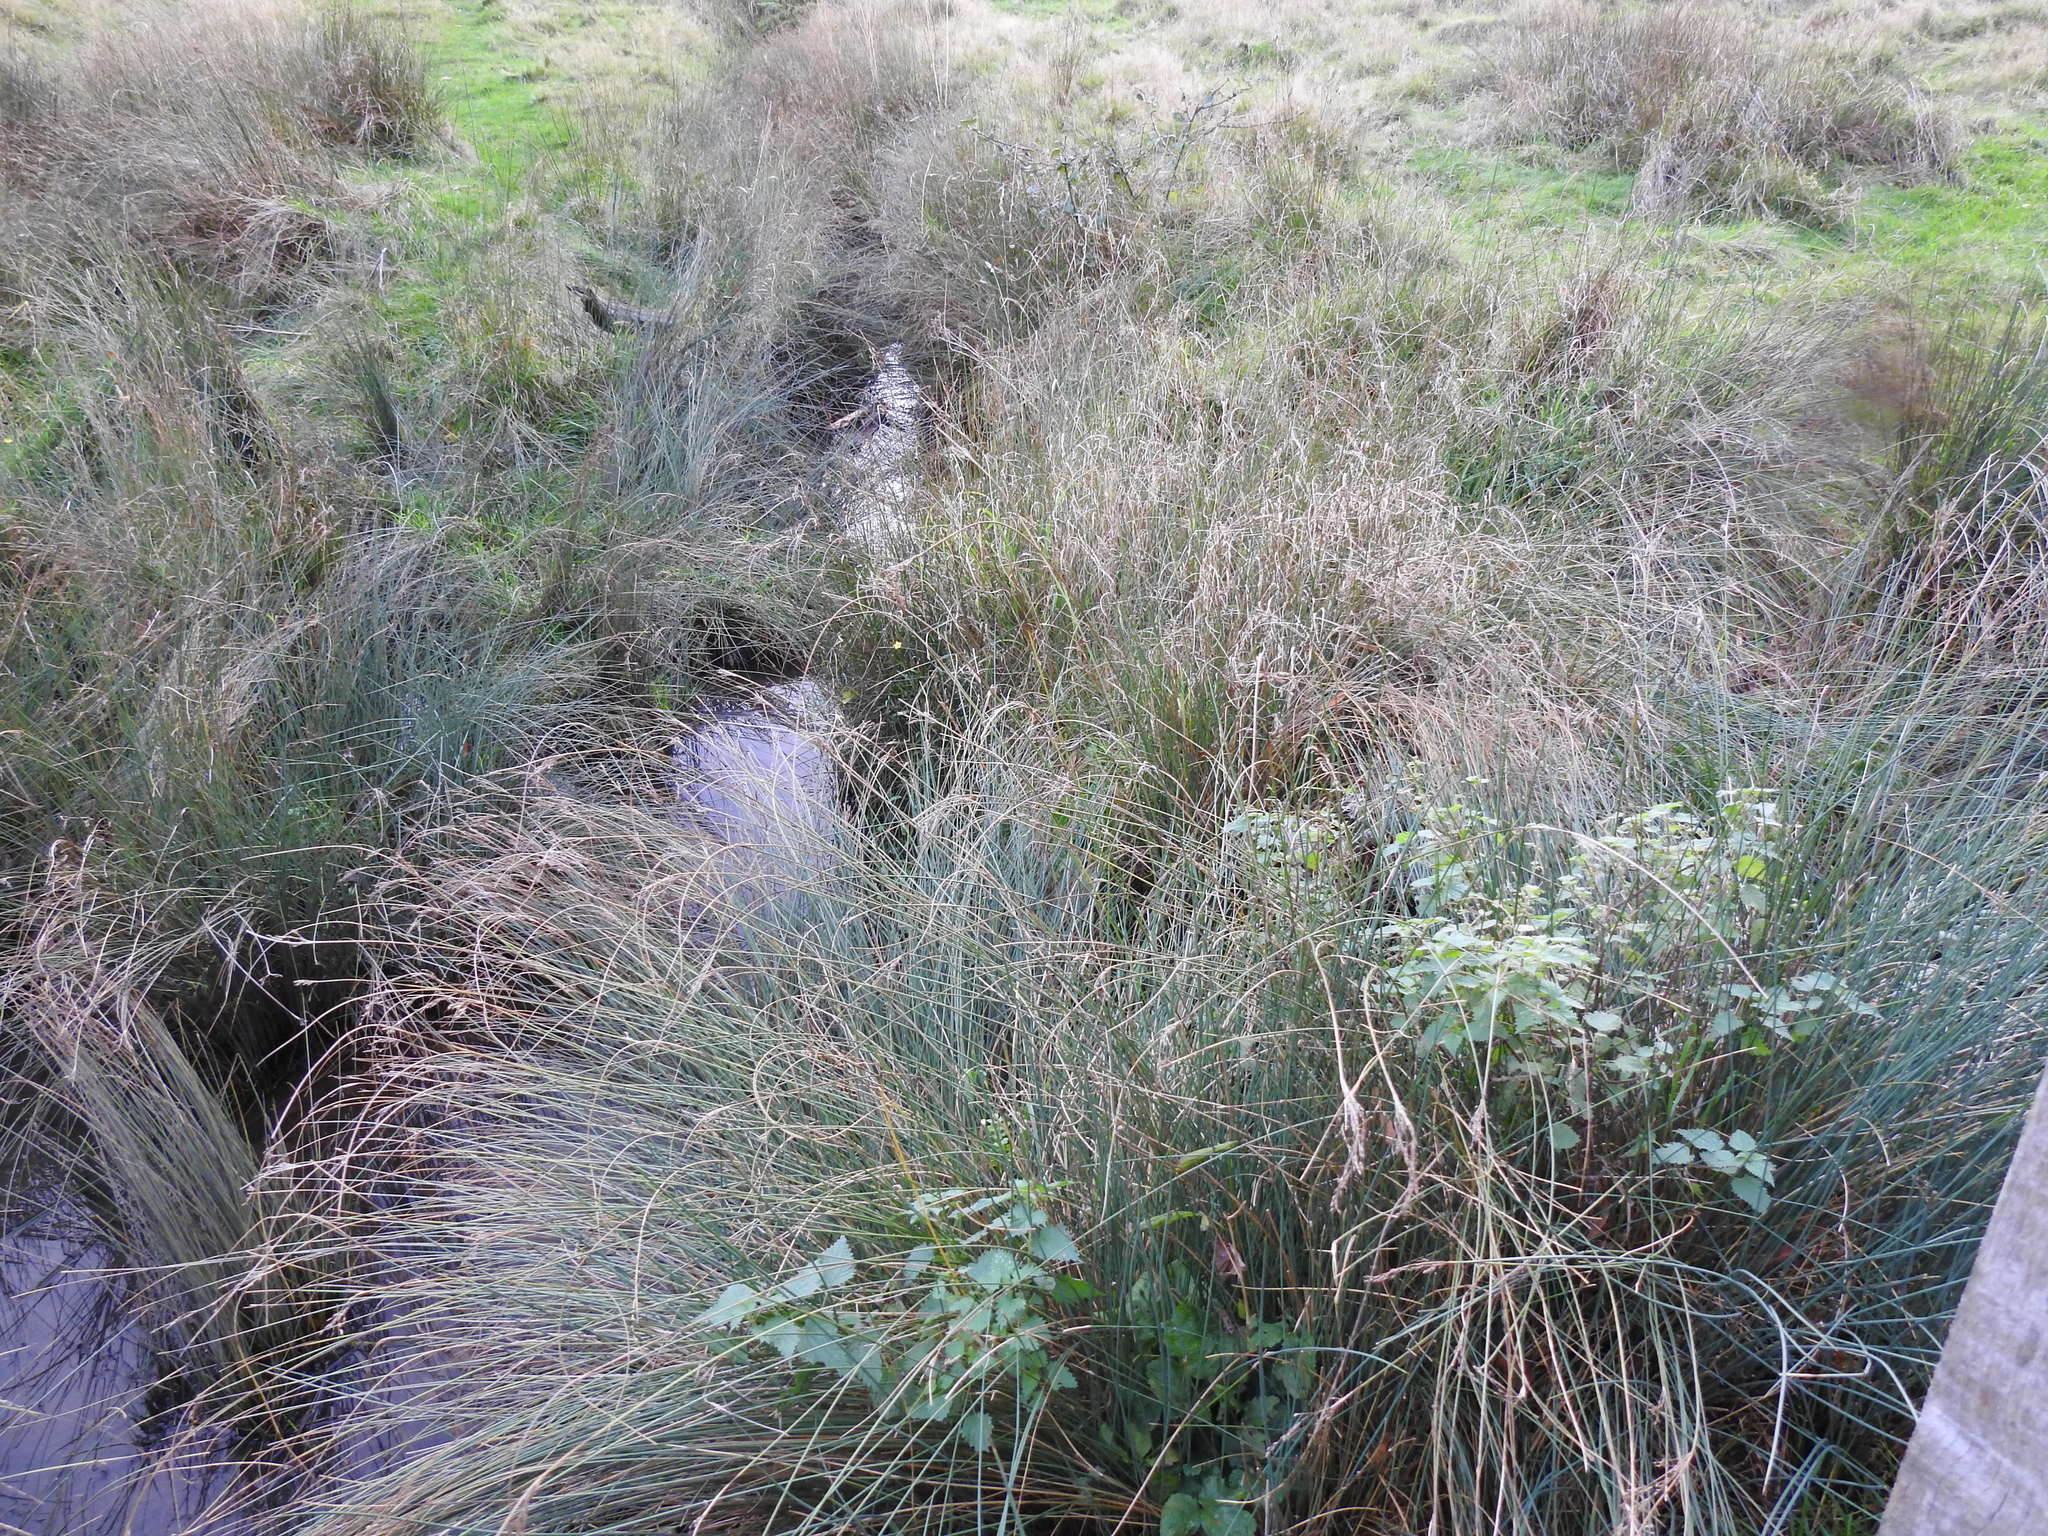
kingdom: Plantae
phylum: Tracheophyta
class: Liliopsida
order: Poales
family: Juncaceae
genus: Juncus
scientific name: Juncus inflexus
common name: Hard rush
